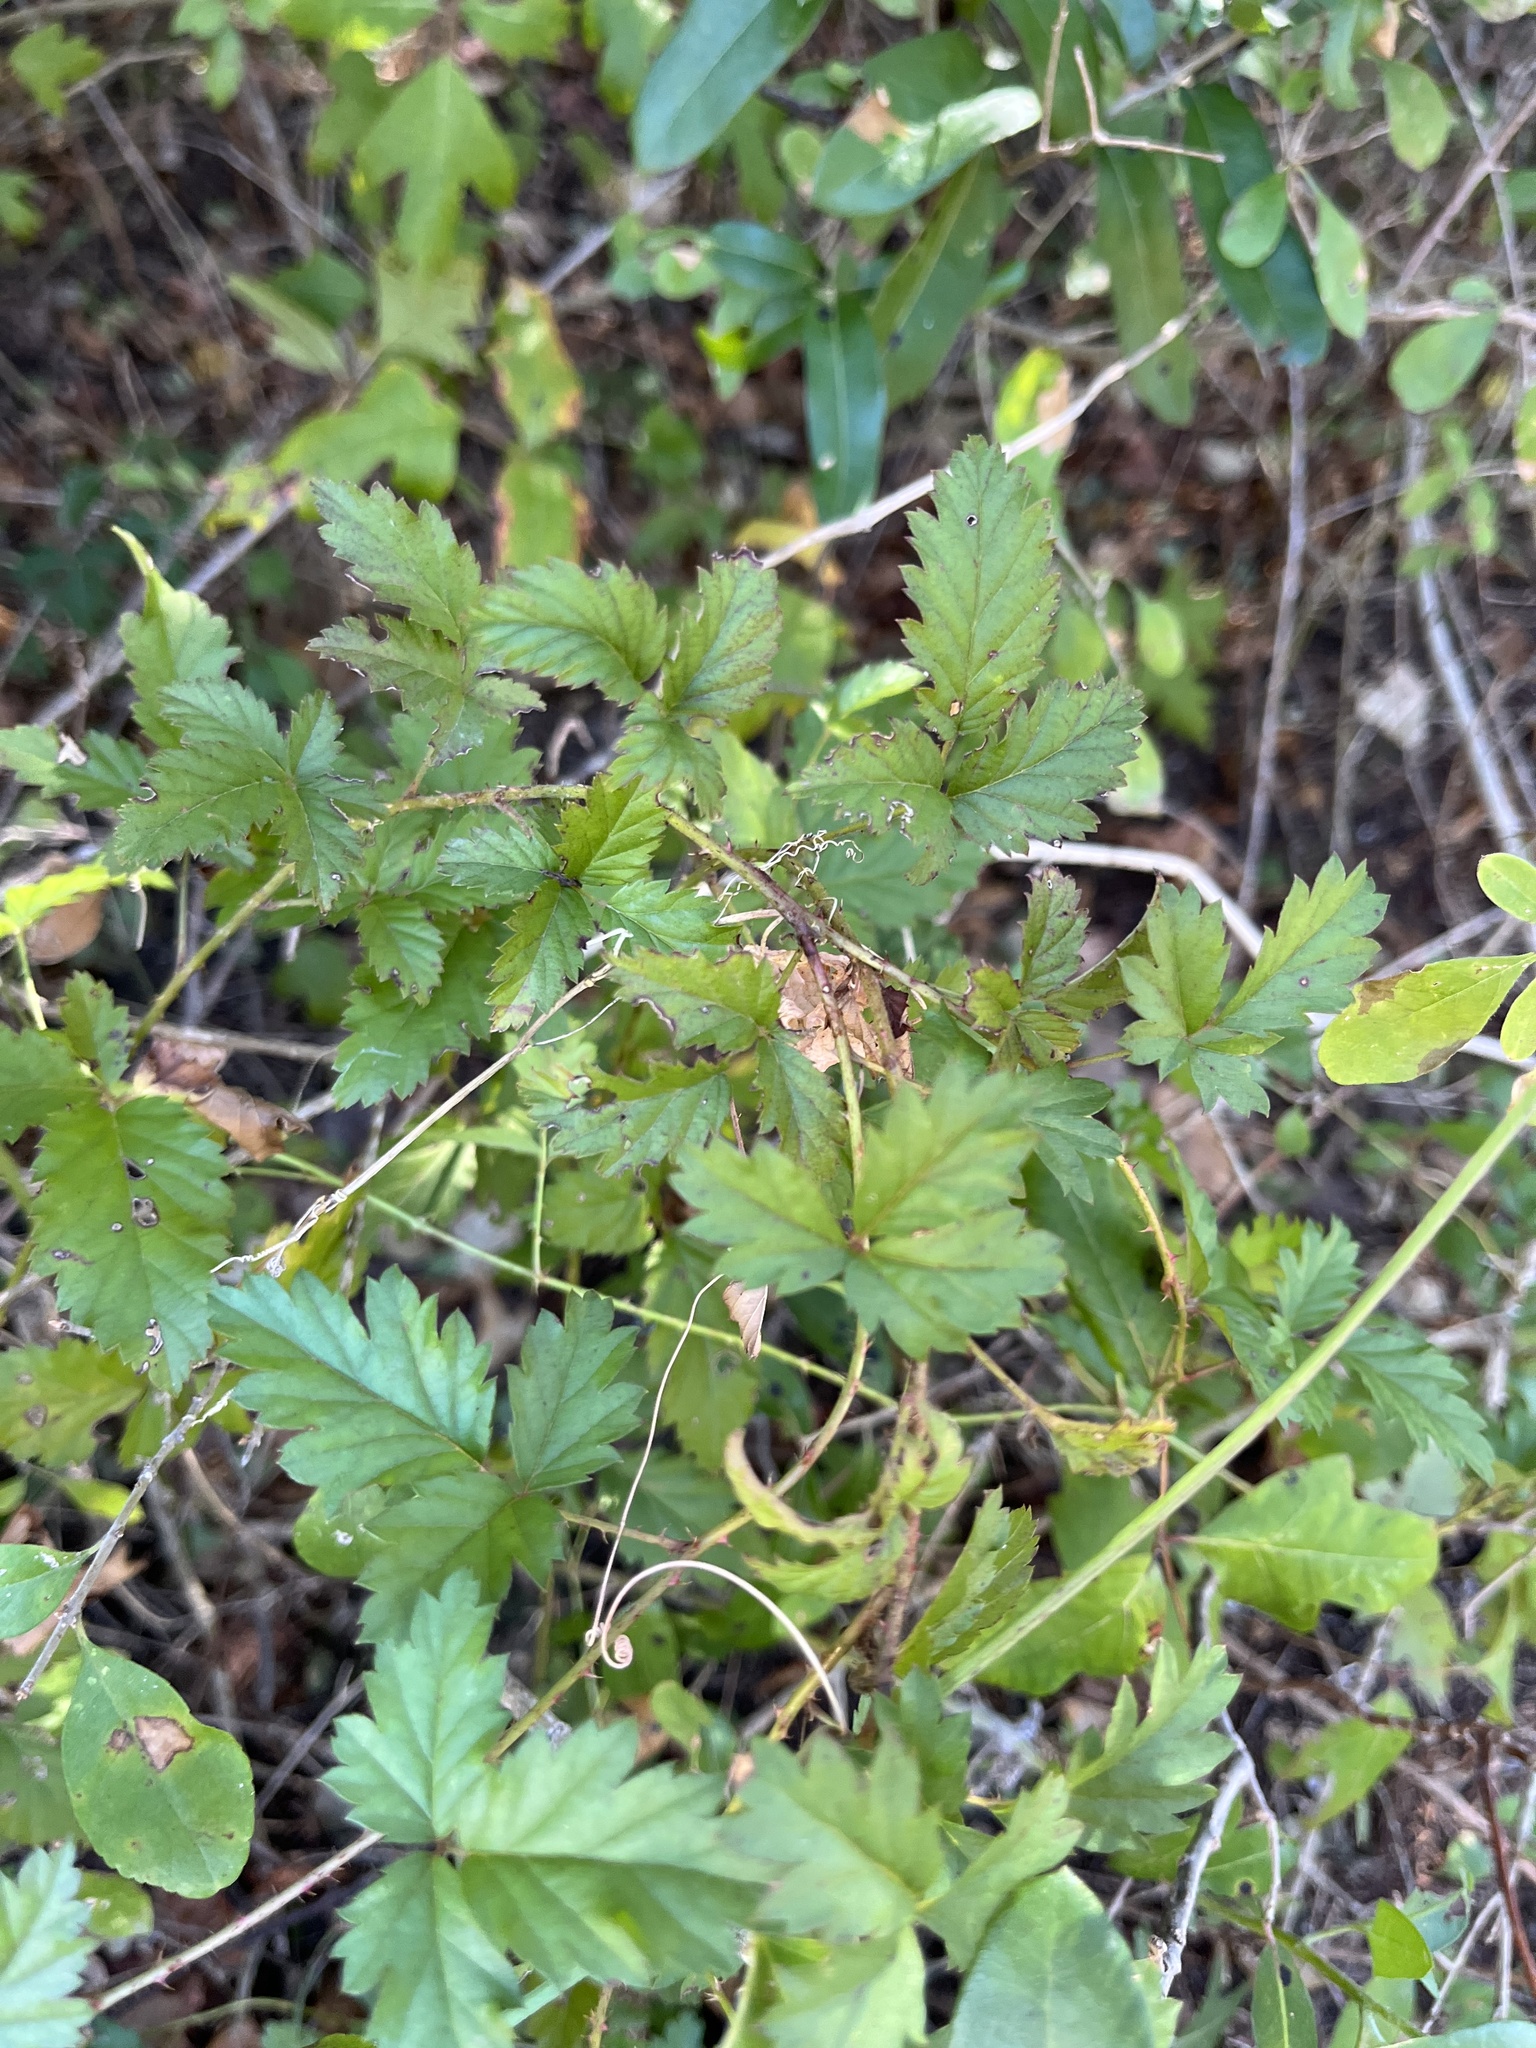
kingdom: Plantae
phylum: Tracheophyta
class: Magnoliopsida
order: Rosales
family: Rosaceae
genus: Rubus
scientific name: Rubus trivialis
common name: Southern dewberry
